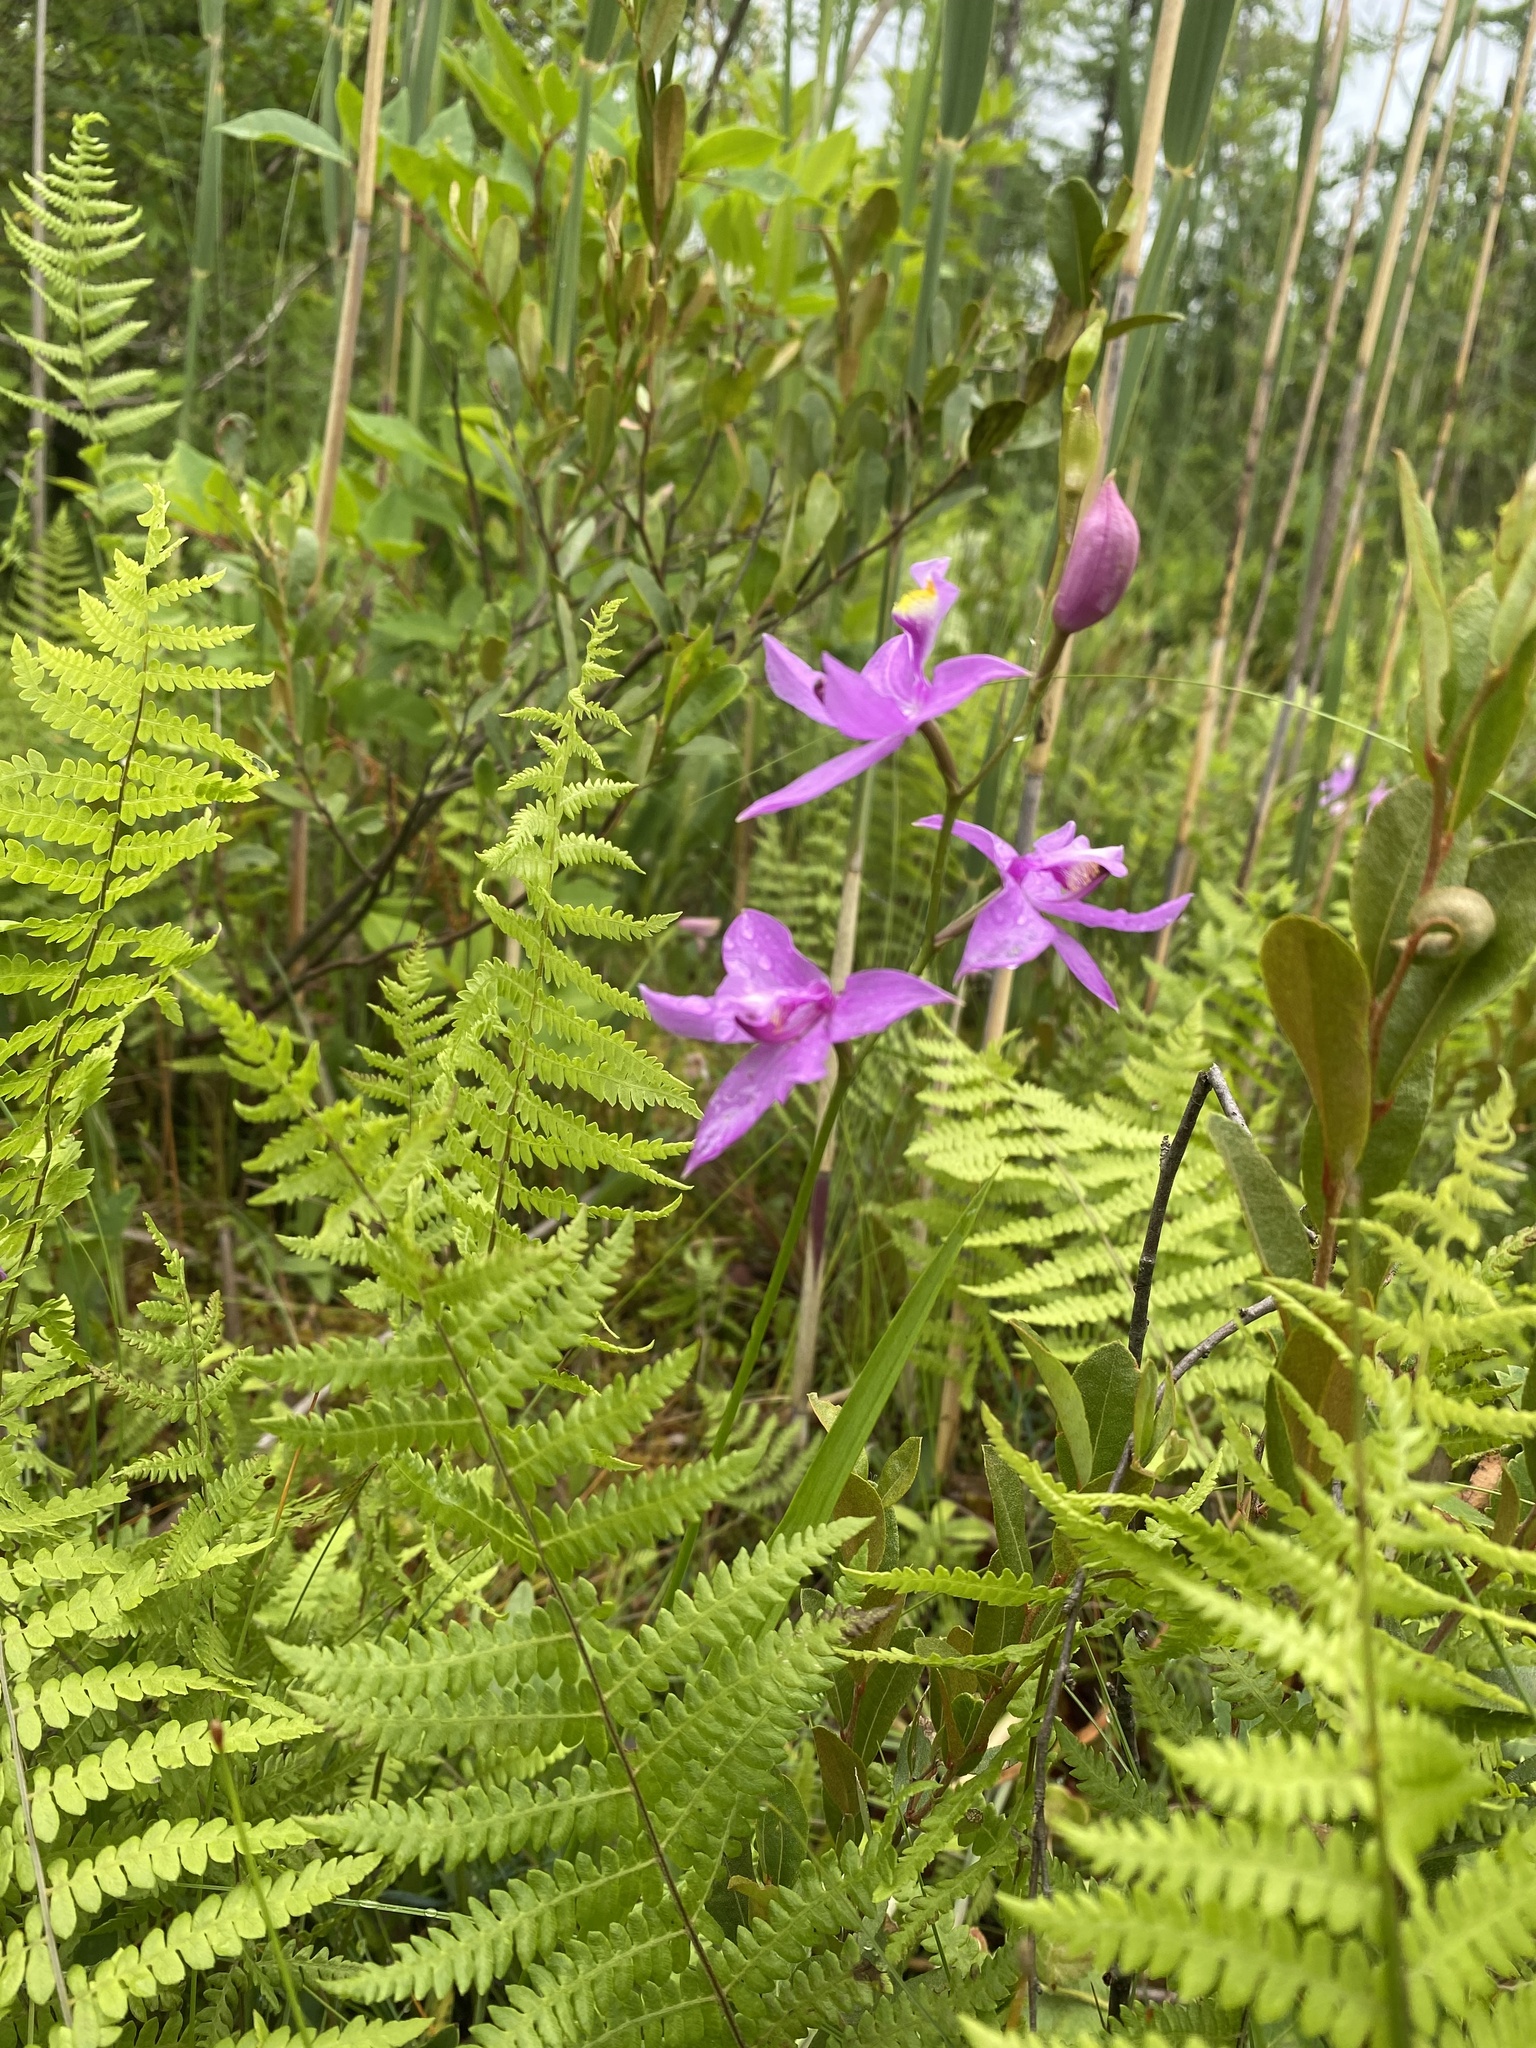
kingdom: Plantae
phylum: Tracheophyta
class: Liliopsida
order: Asparagales
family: Orchidaceae
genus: Calopogon
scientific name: Calopogon tuberosus
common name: Grass-pink
